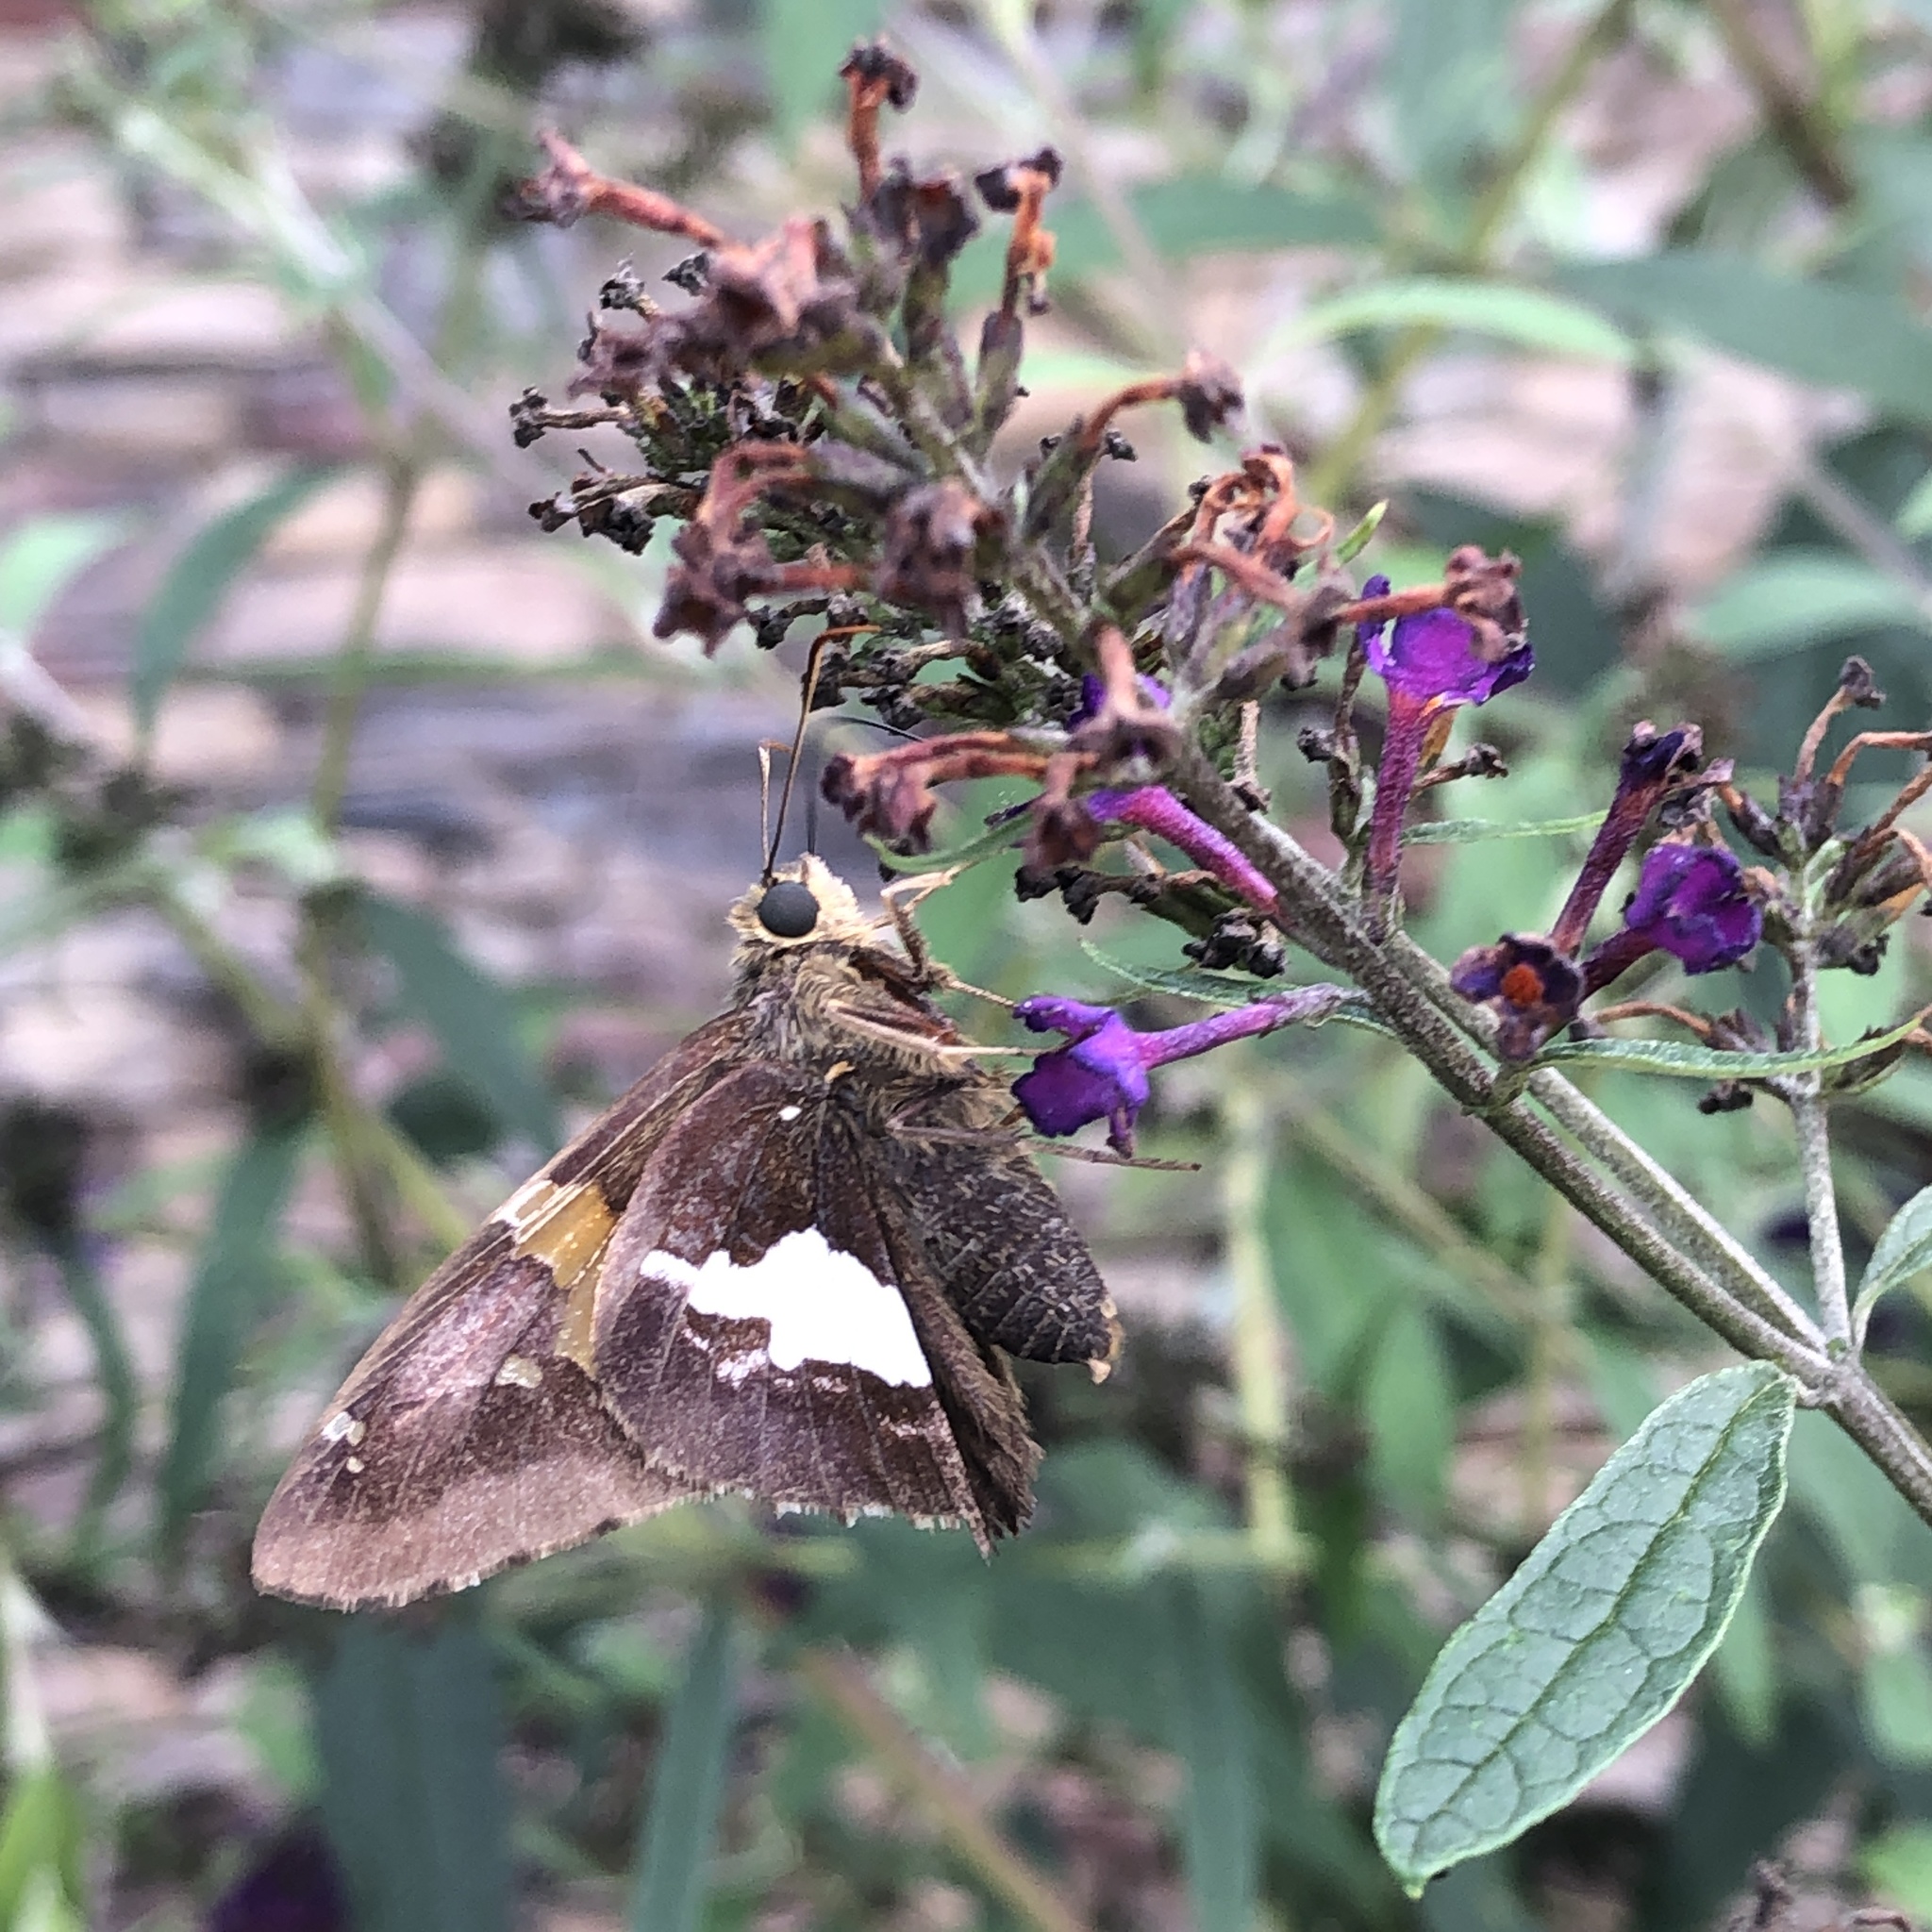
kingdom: Animalia
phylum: Arthropoda
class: Insecta
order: Lepidoptera
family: Hesperiidae
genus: Epargyreus
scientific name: Epargyreus clarus
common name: Silver-spotted skipper
